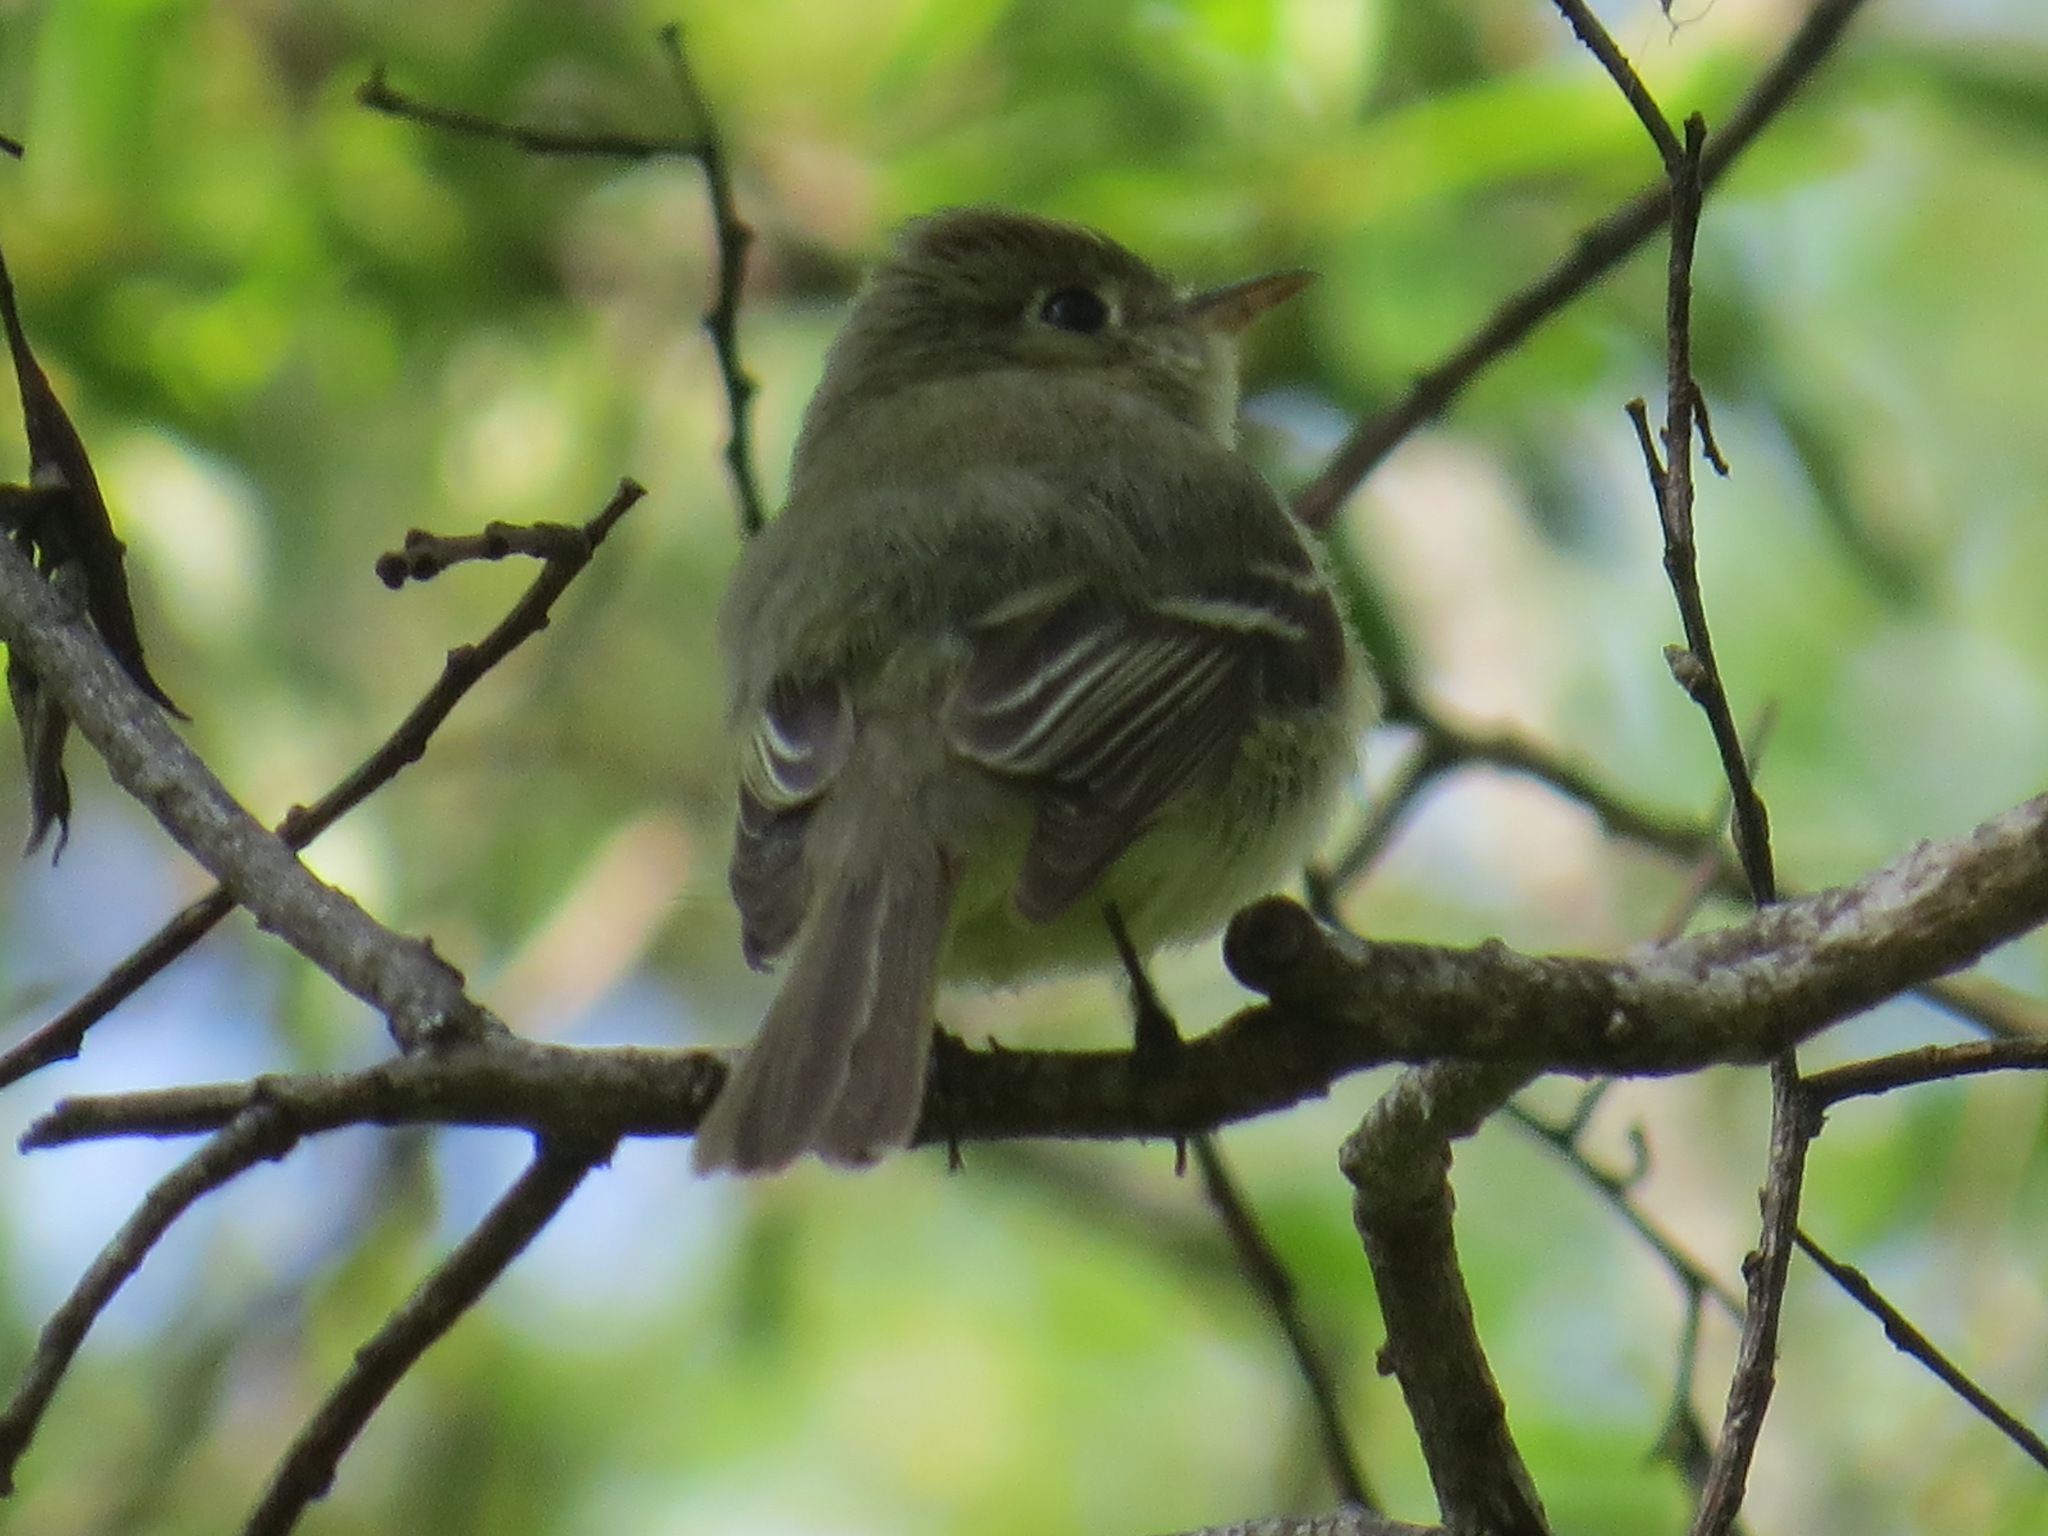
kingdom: Animalia
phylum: Chordata
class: Aves
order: Passeriformes
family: Tyrannidae
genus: Empidonax
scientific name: Empidonax difficilis
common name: Pacific-slope flycatcher
